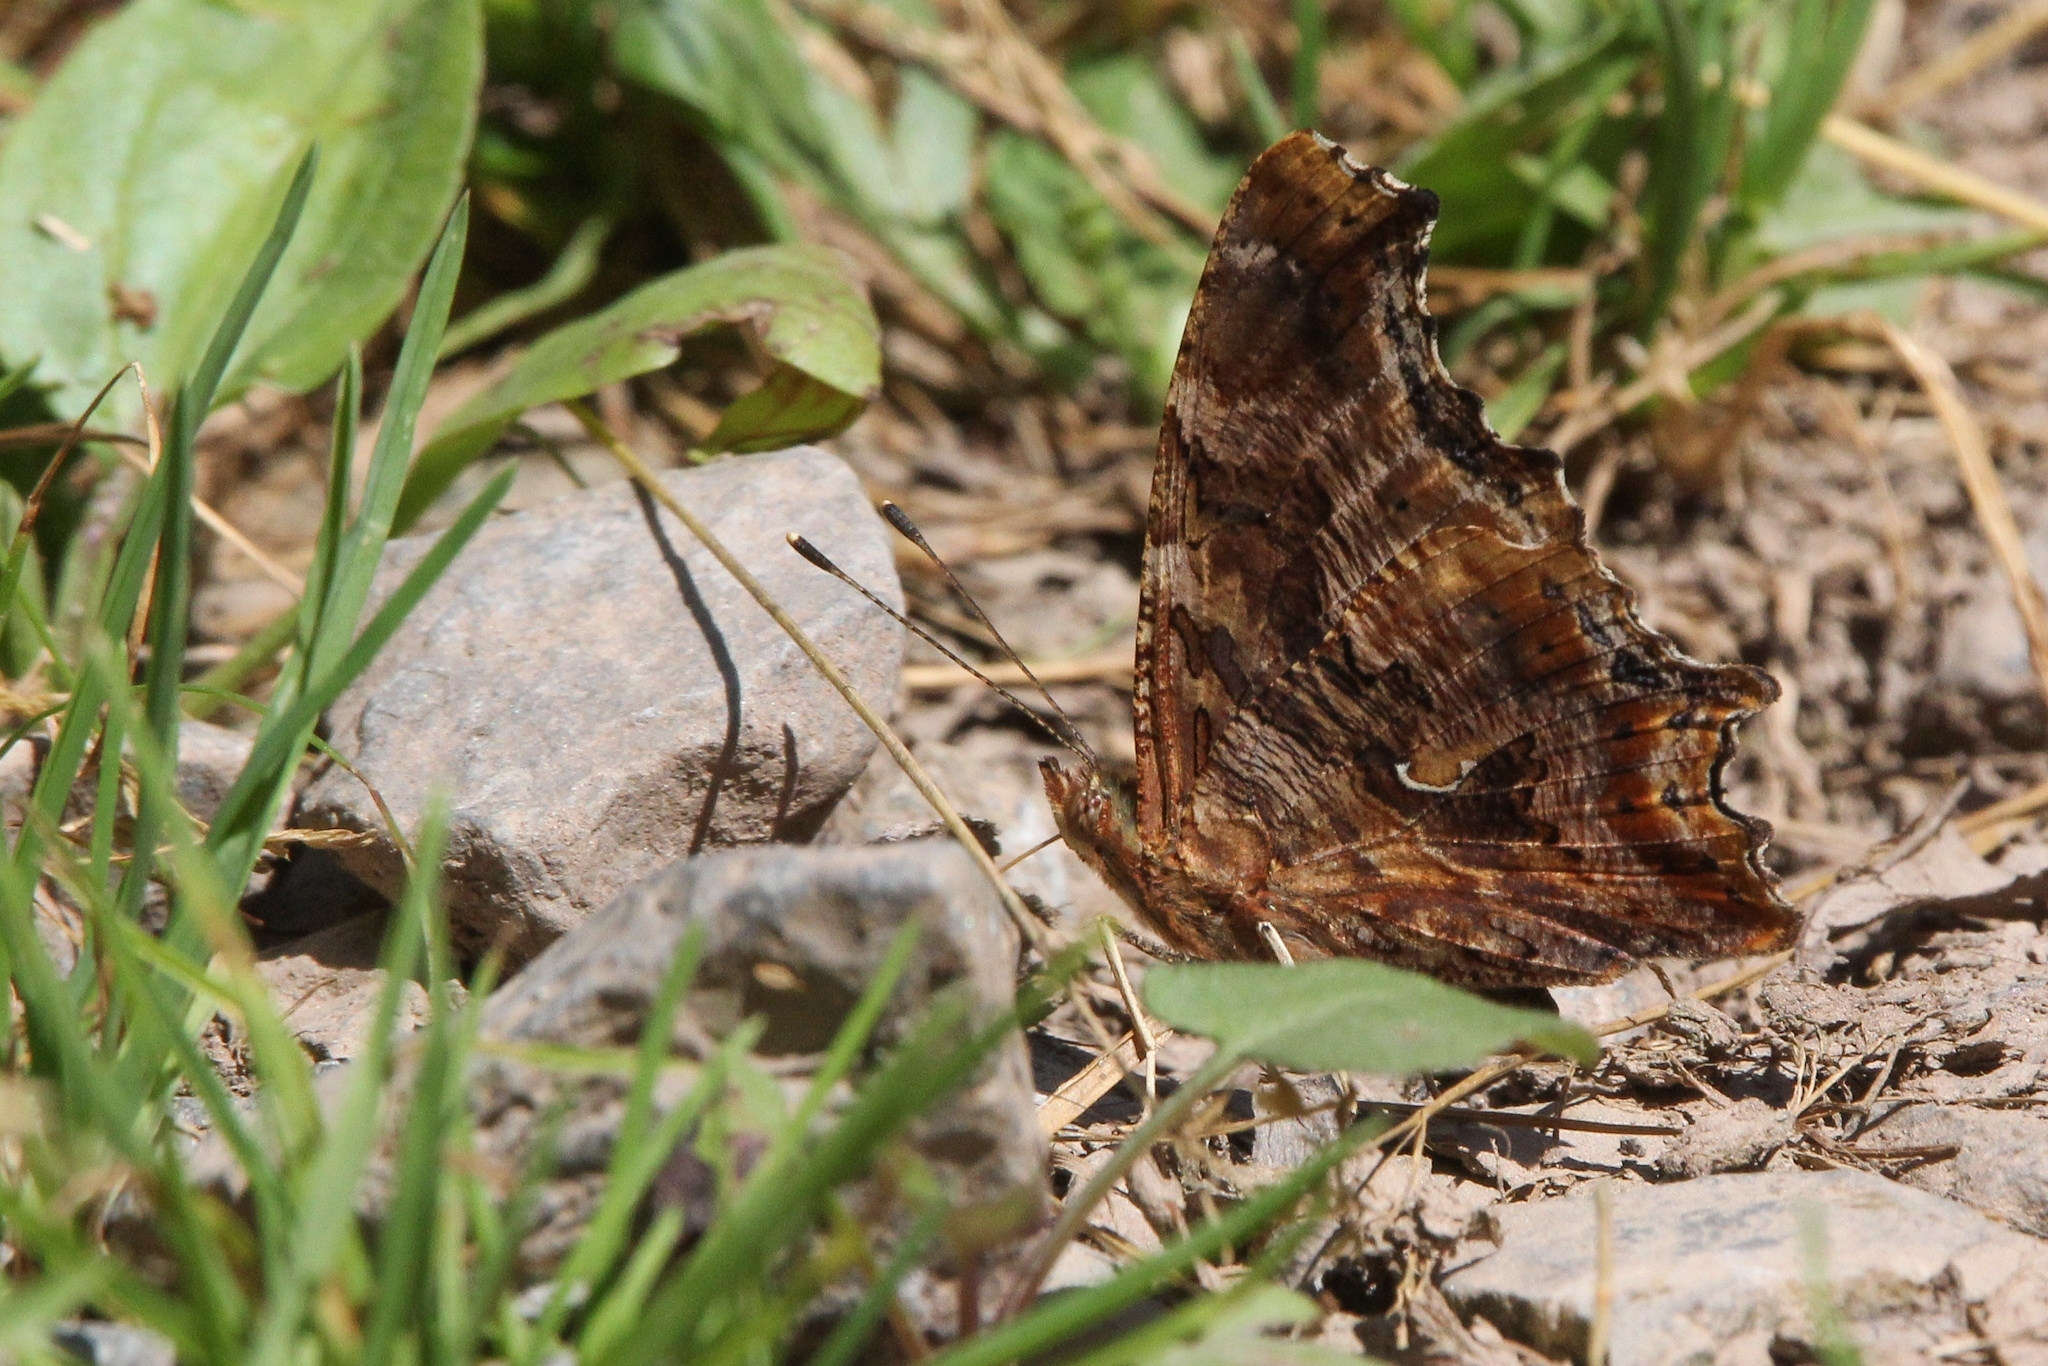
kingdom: Animalia
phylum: Arthropoda
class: Insecta
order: Lepidoptera
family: Nymphalidae
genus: Polygonia
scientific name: Polygonia comma
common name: Eastern comma
